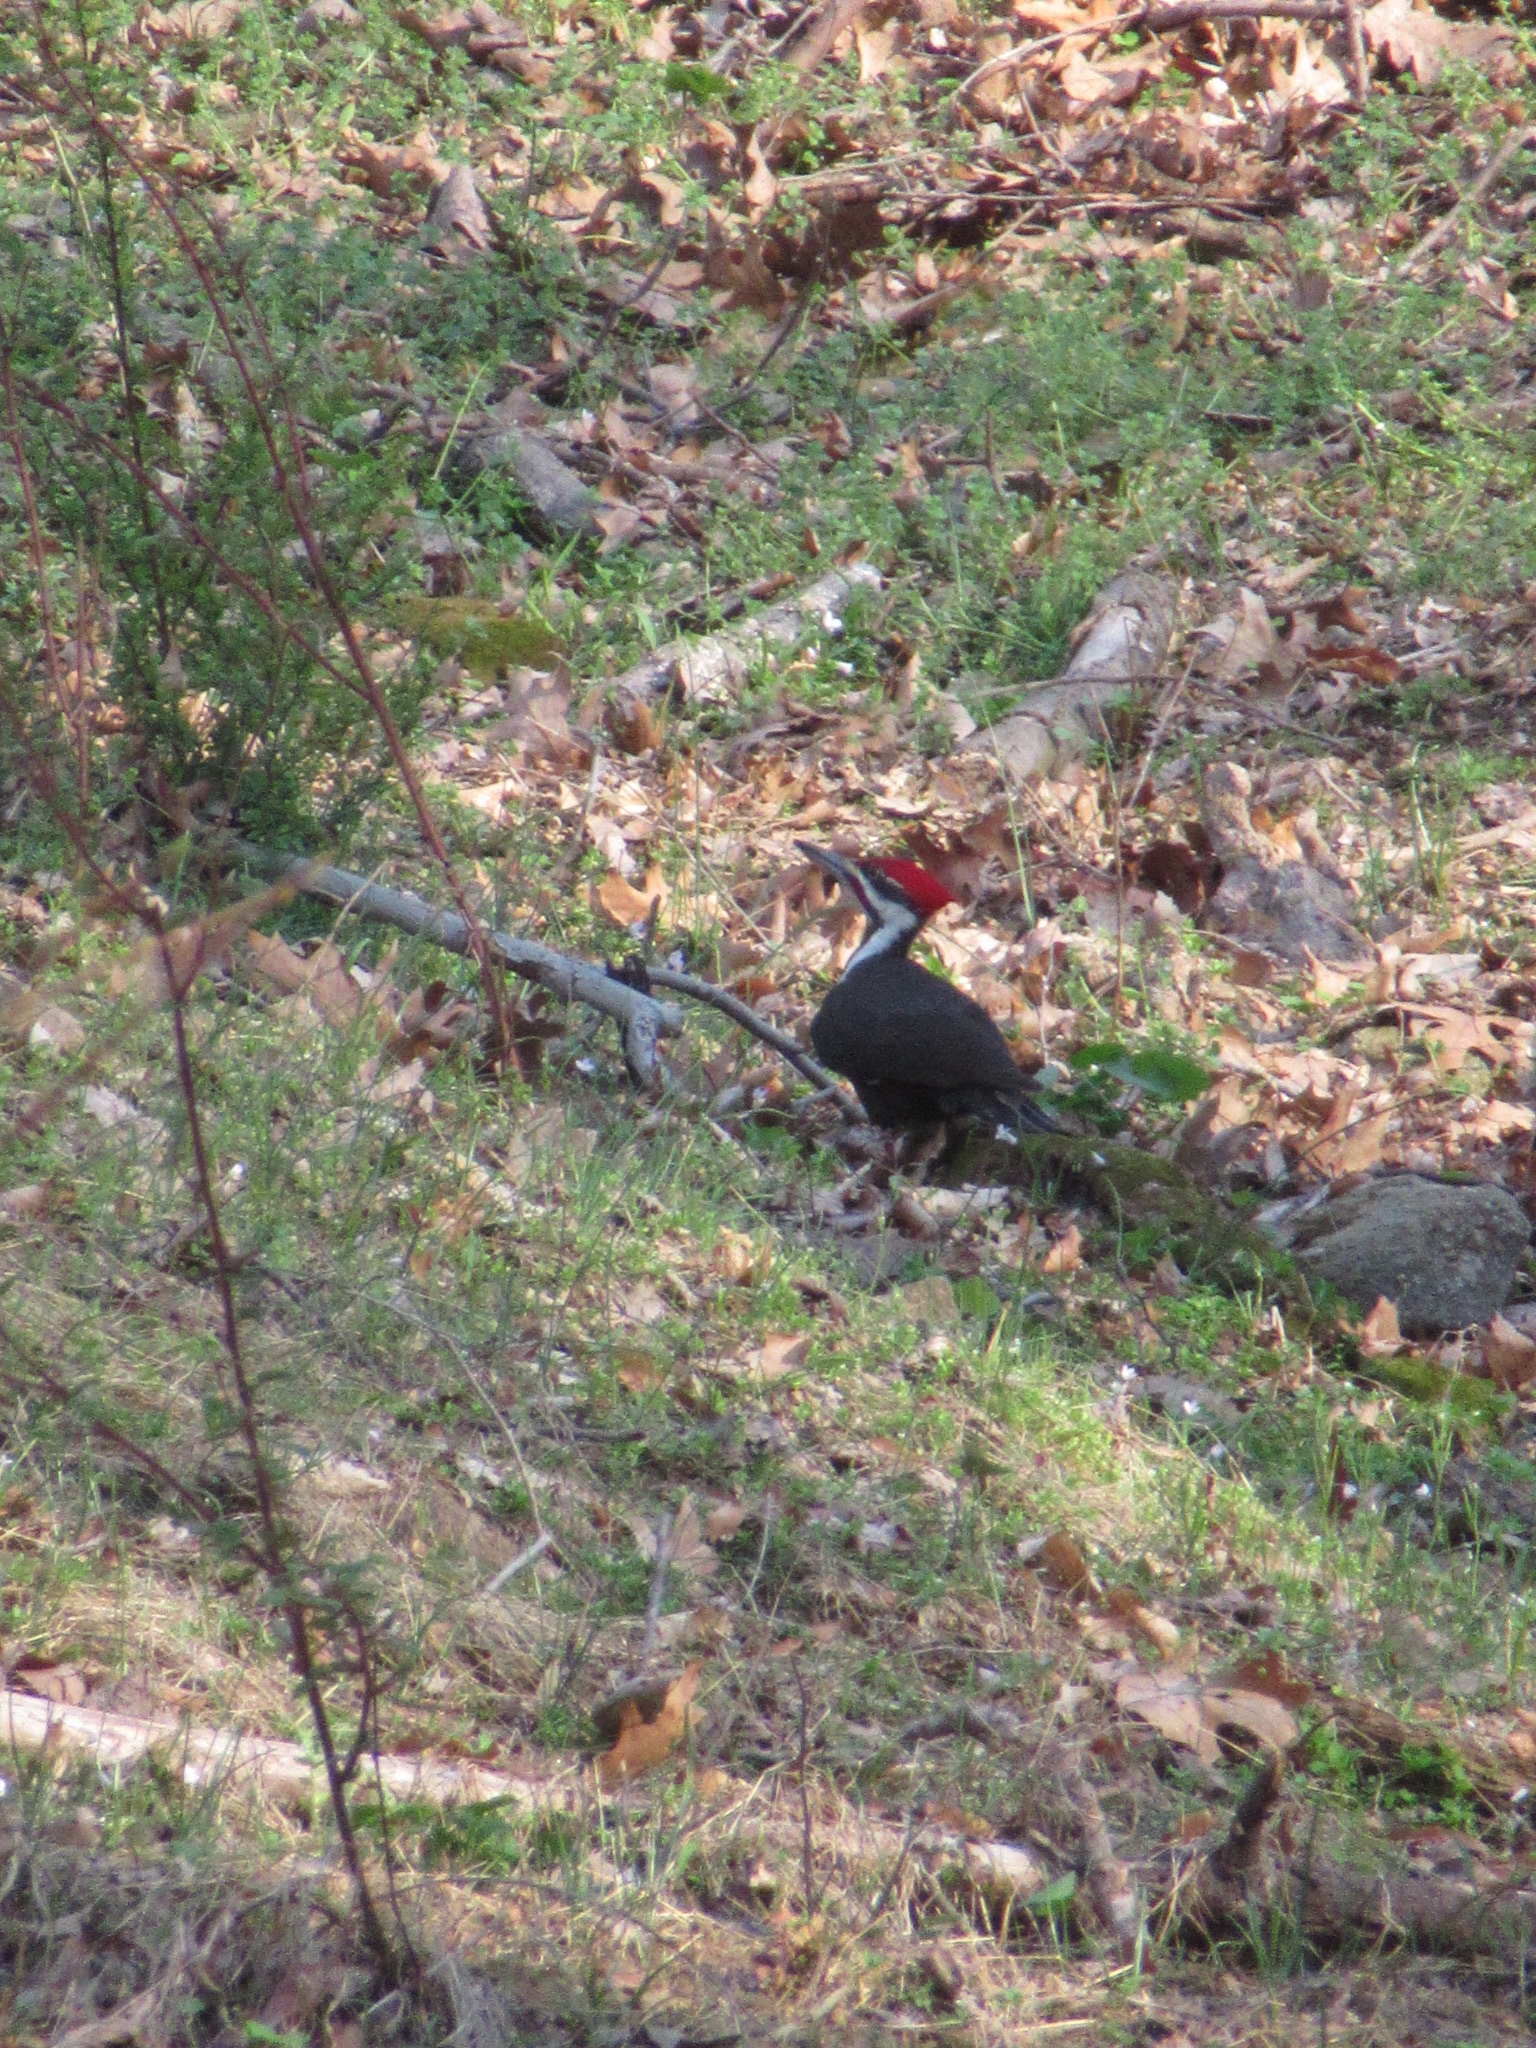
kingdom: Animalia
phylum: Chordata
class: Aves
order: Piciformes
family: Picidae
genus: Dryocopus
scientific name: Dryocopus pileatus
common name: Pileated woodpecker
